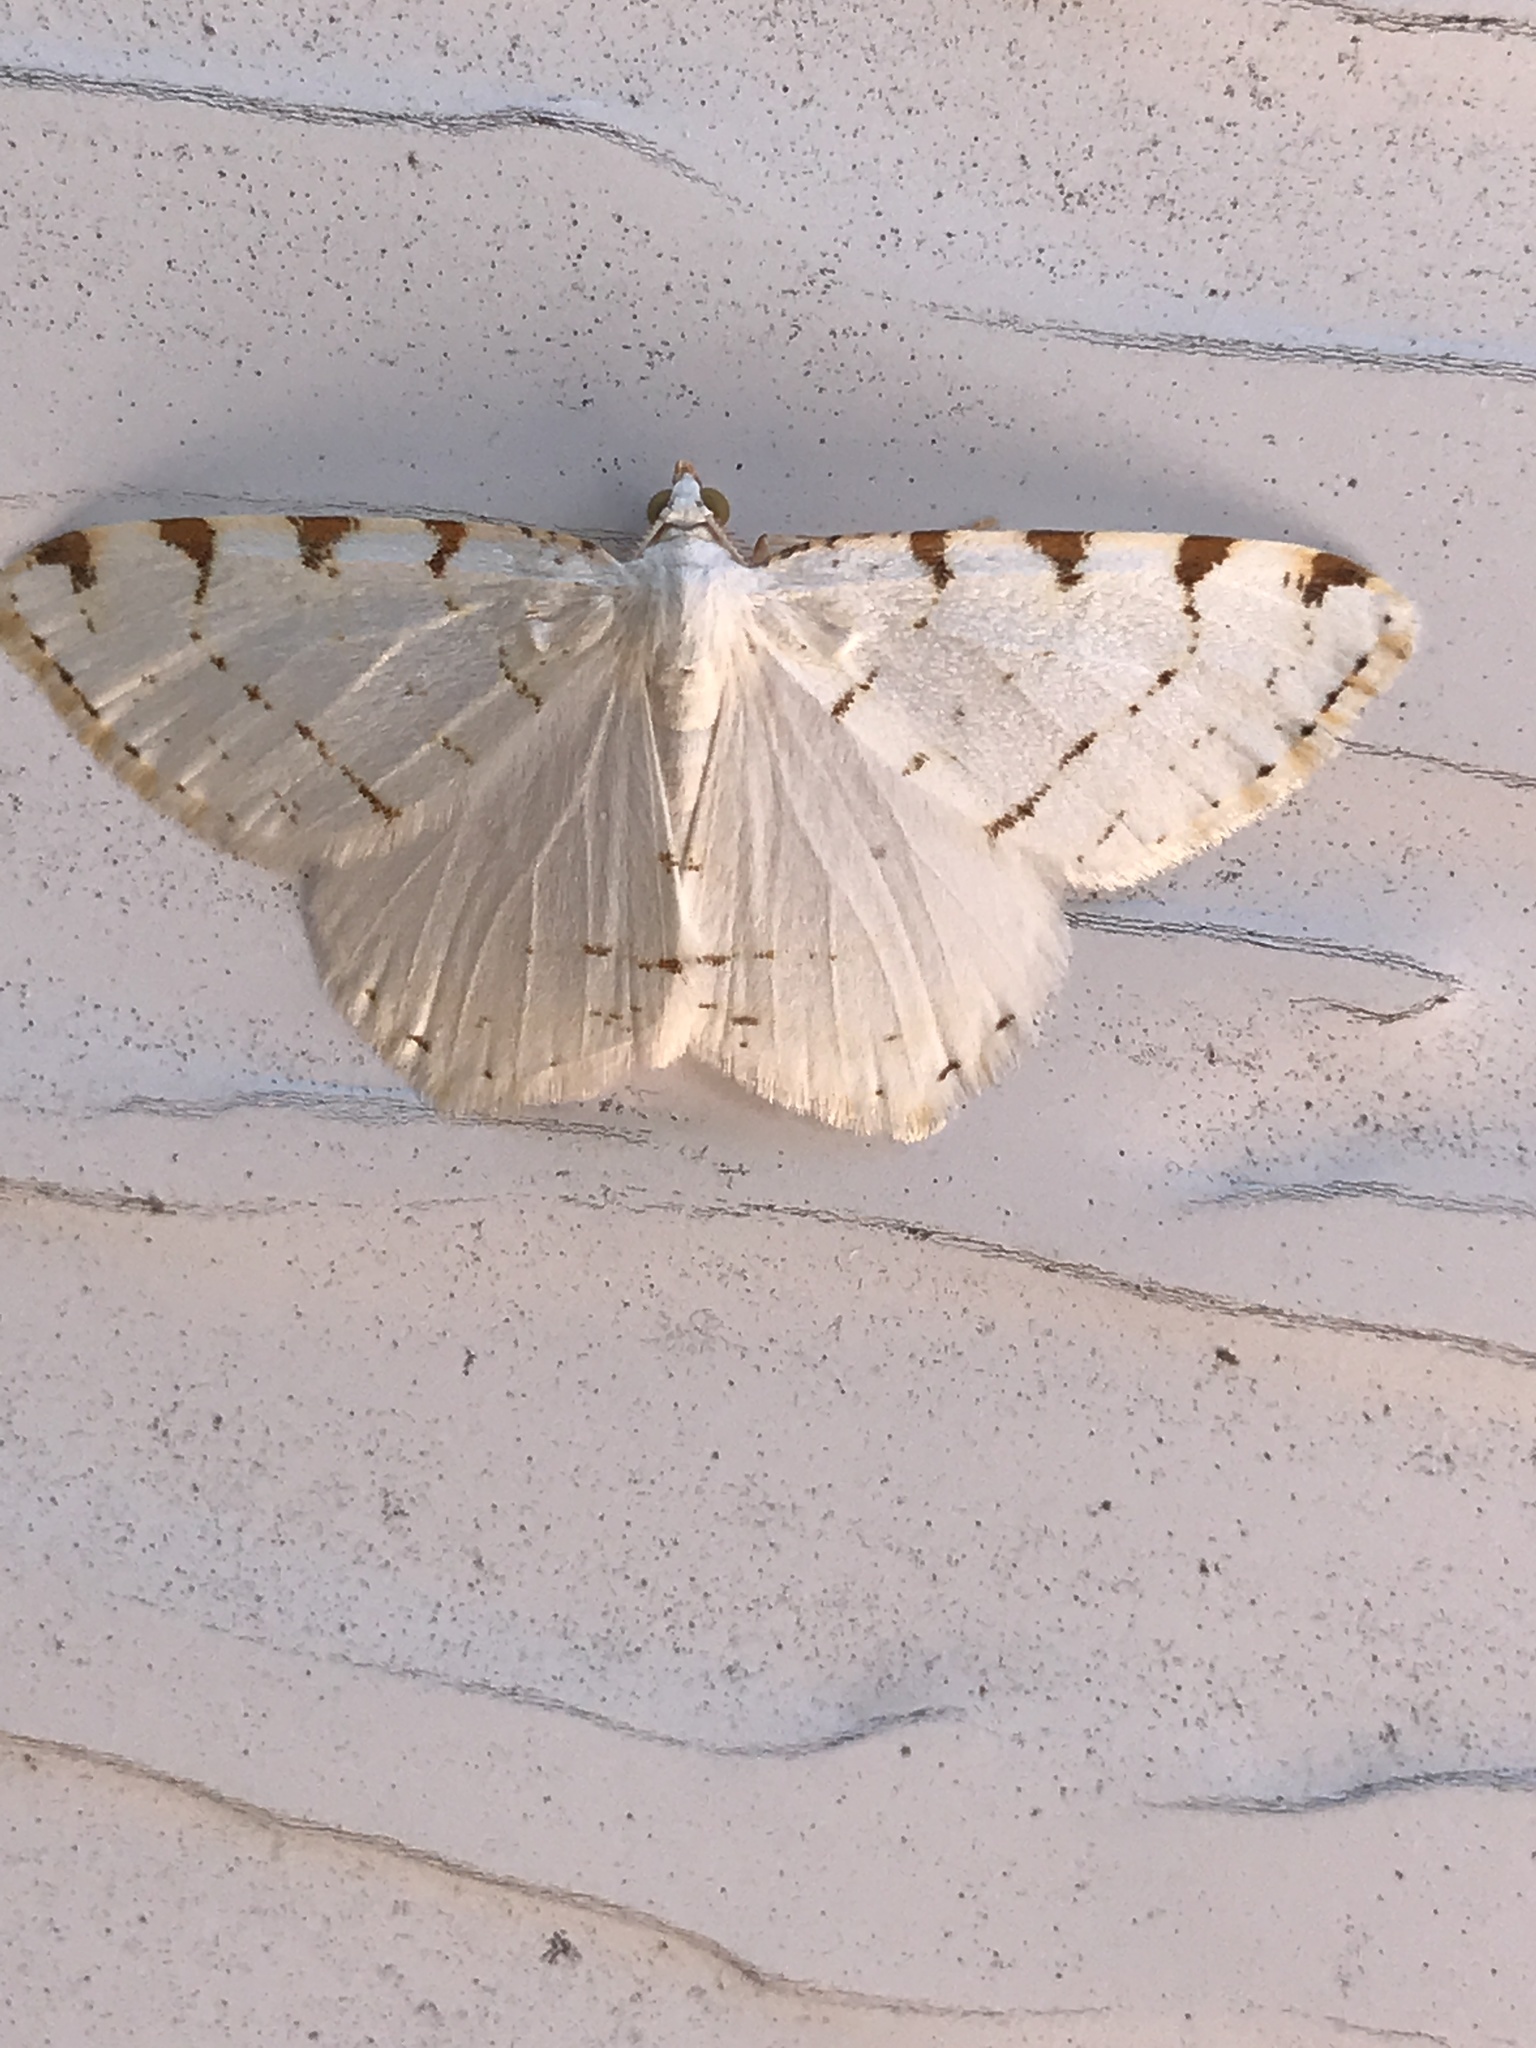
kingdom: Animalia
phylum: Arthropoda
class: Insecta
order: Lepidoptera
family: Geometridae
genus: Macaria
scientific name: Macaria pustularia
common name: Lesser maple spanworm moth
